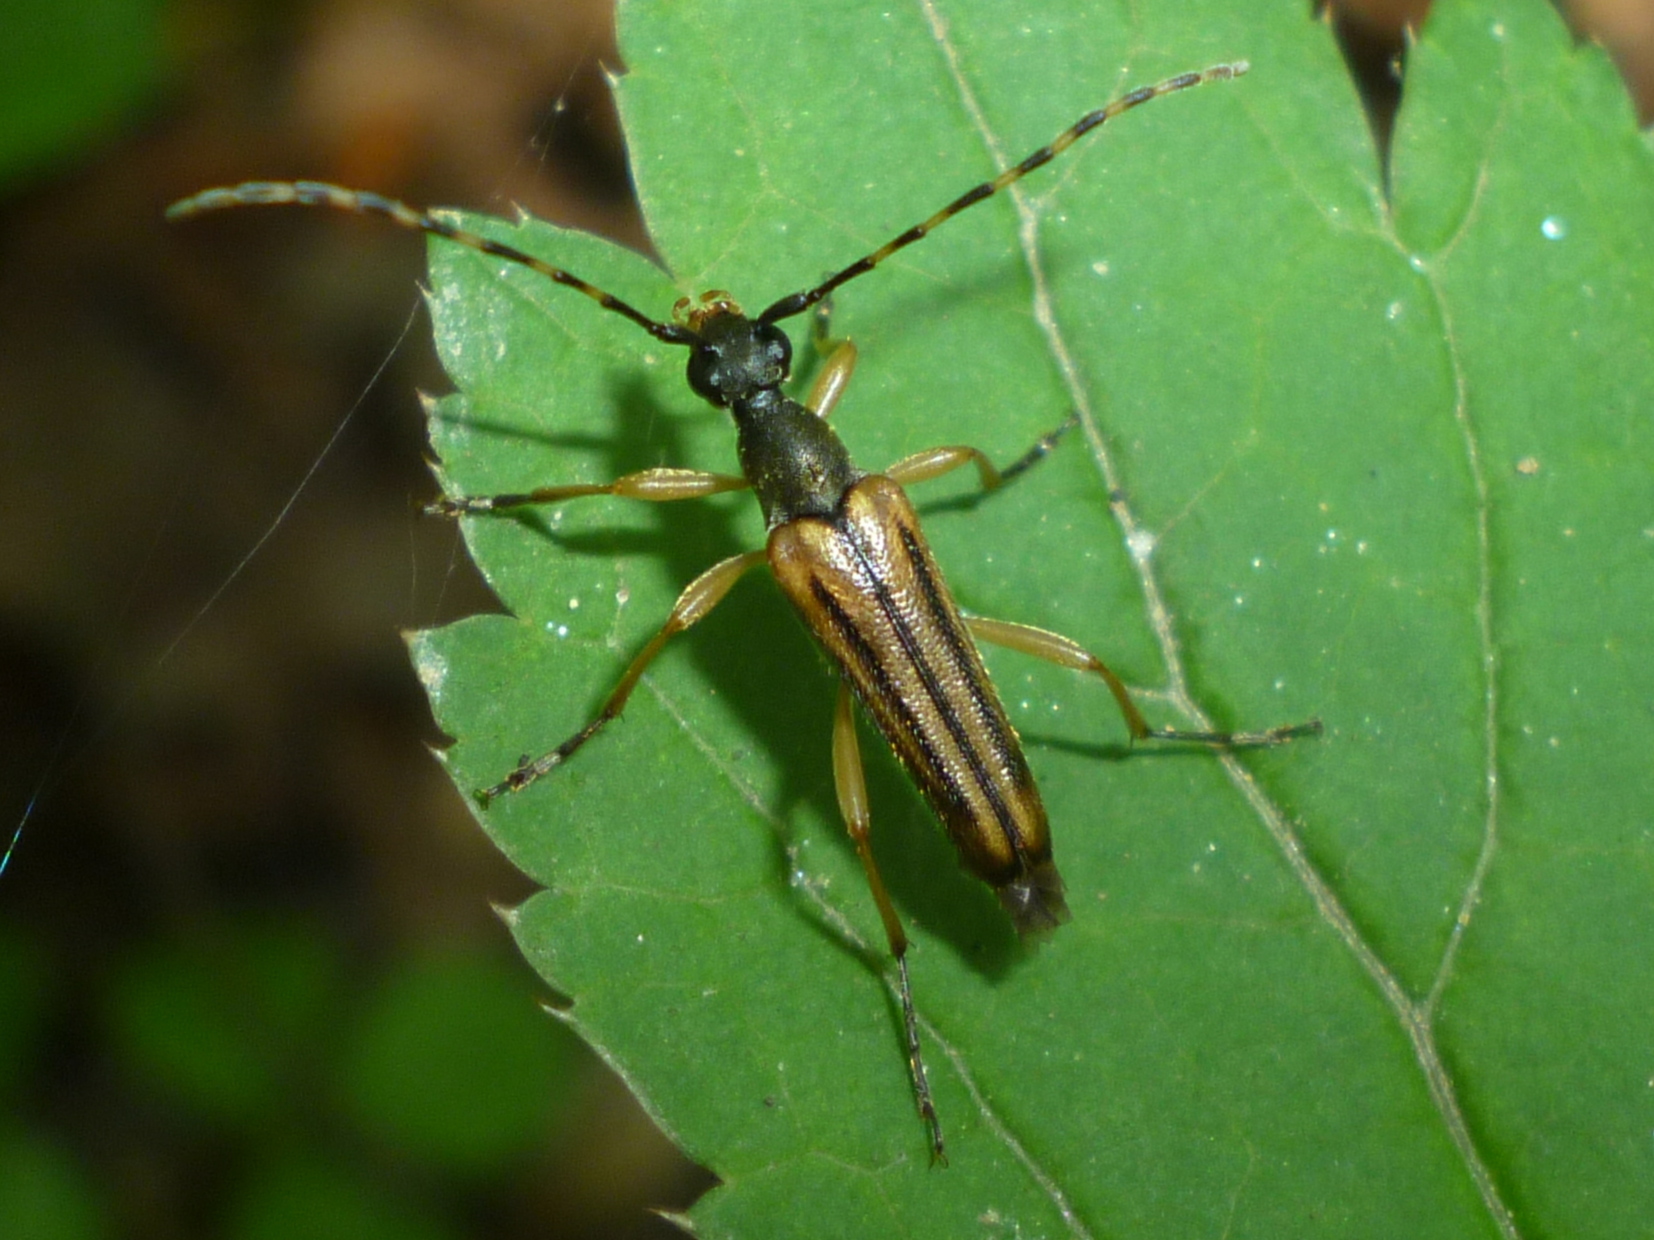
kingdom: Animalia
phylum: Arthropoda
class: Insecta
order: Coleoptera
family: Cerambycidae
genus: Analeptura
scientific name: Analeptura lineola
